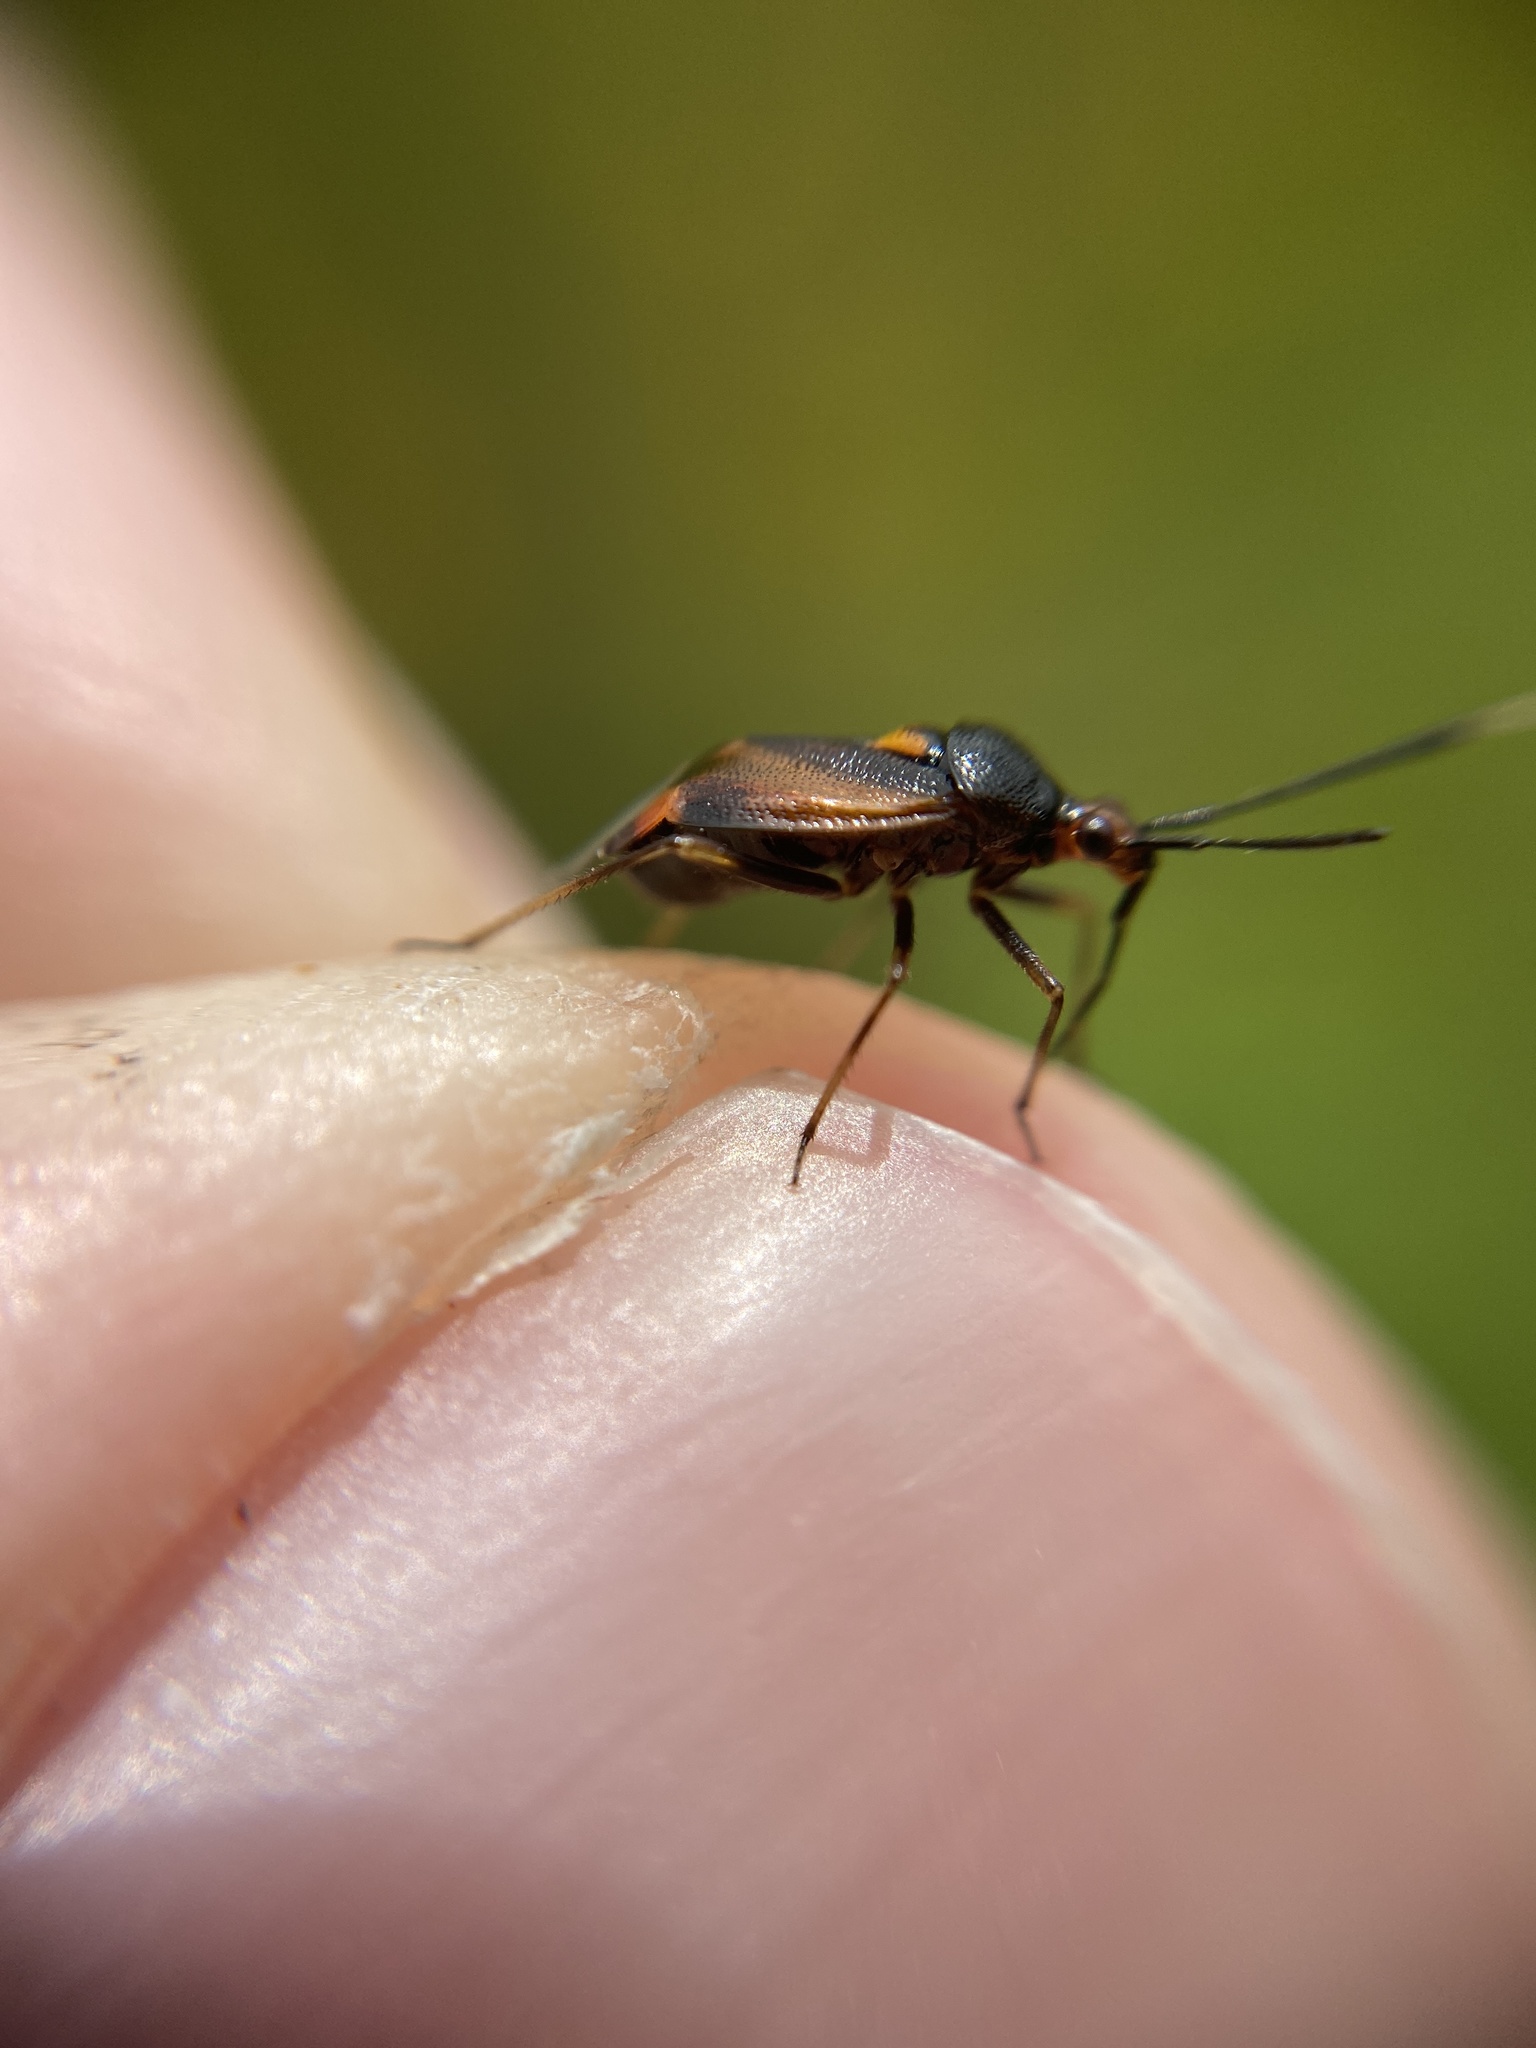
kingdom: Animalia
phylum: Arthropoda
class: Insecta
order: Hemiptera
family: Miridae
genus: Deraeocoris
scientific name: Deraeocoris ruber
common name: Plant bug
